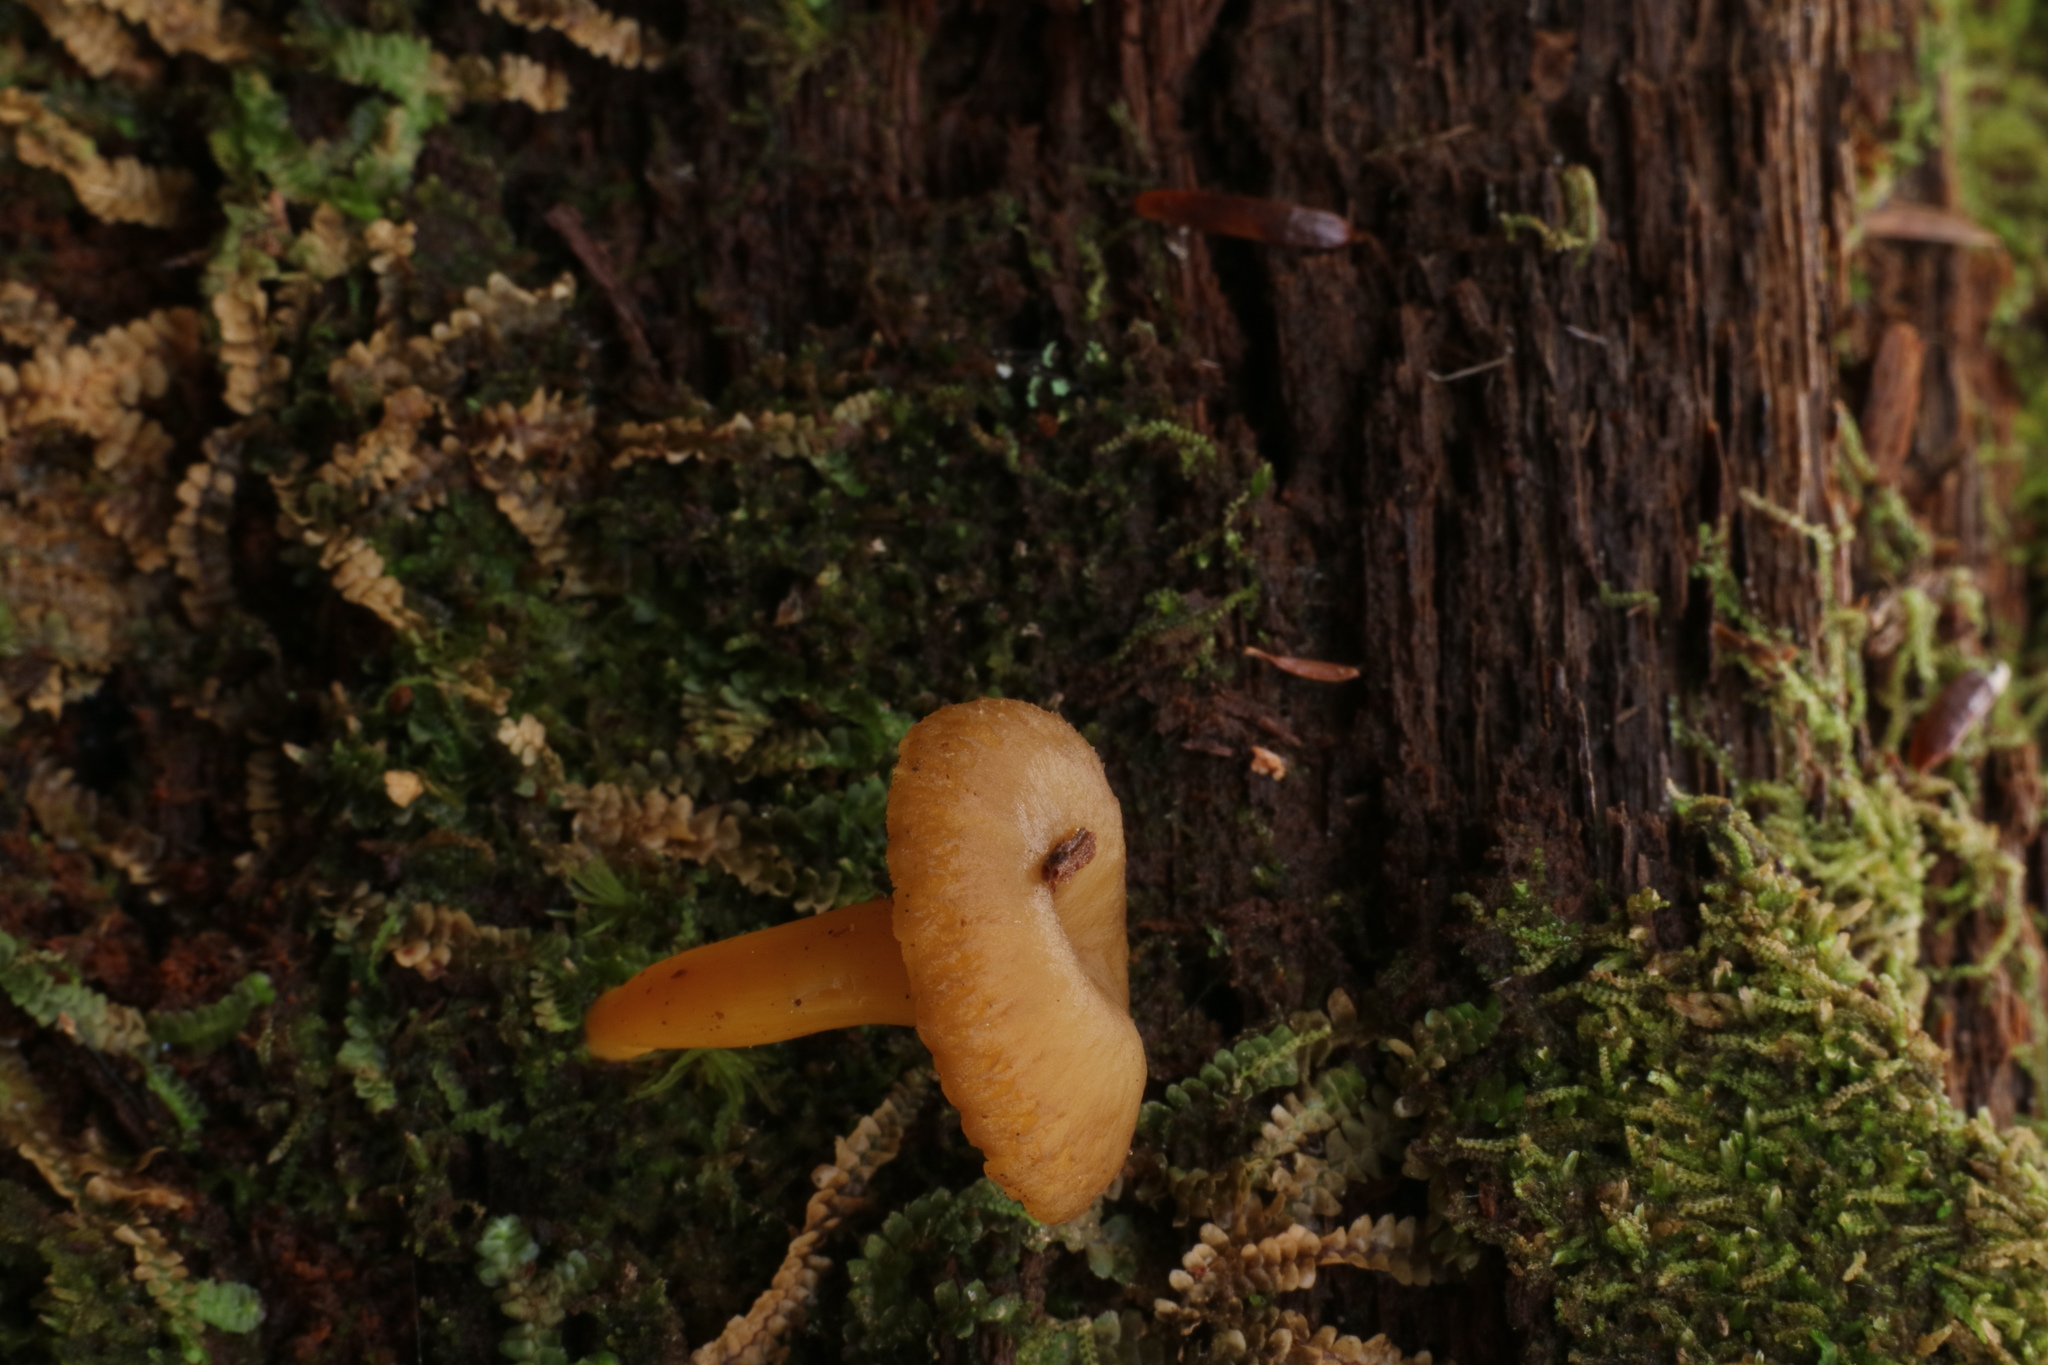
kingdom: Fungi
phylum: Basidiomycota
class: Agaricomycetes
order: Cantharellales
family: Hydnaceae
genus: Craterellus
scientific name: Craterellus tubaeformis
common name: Yellowfoot
